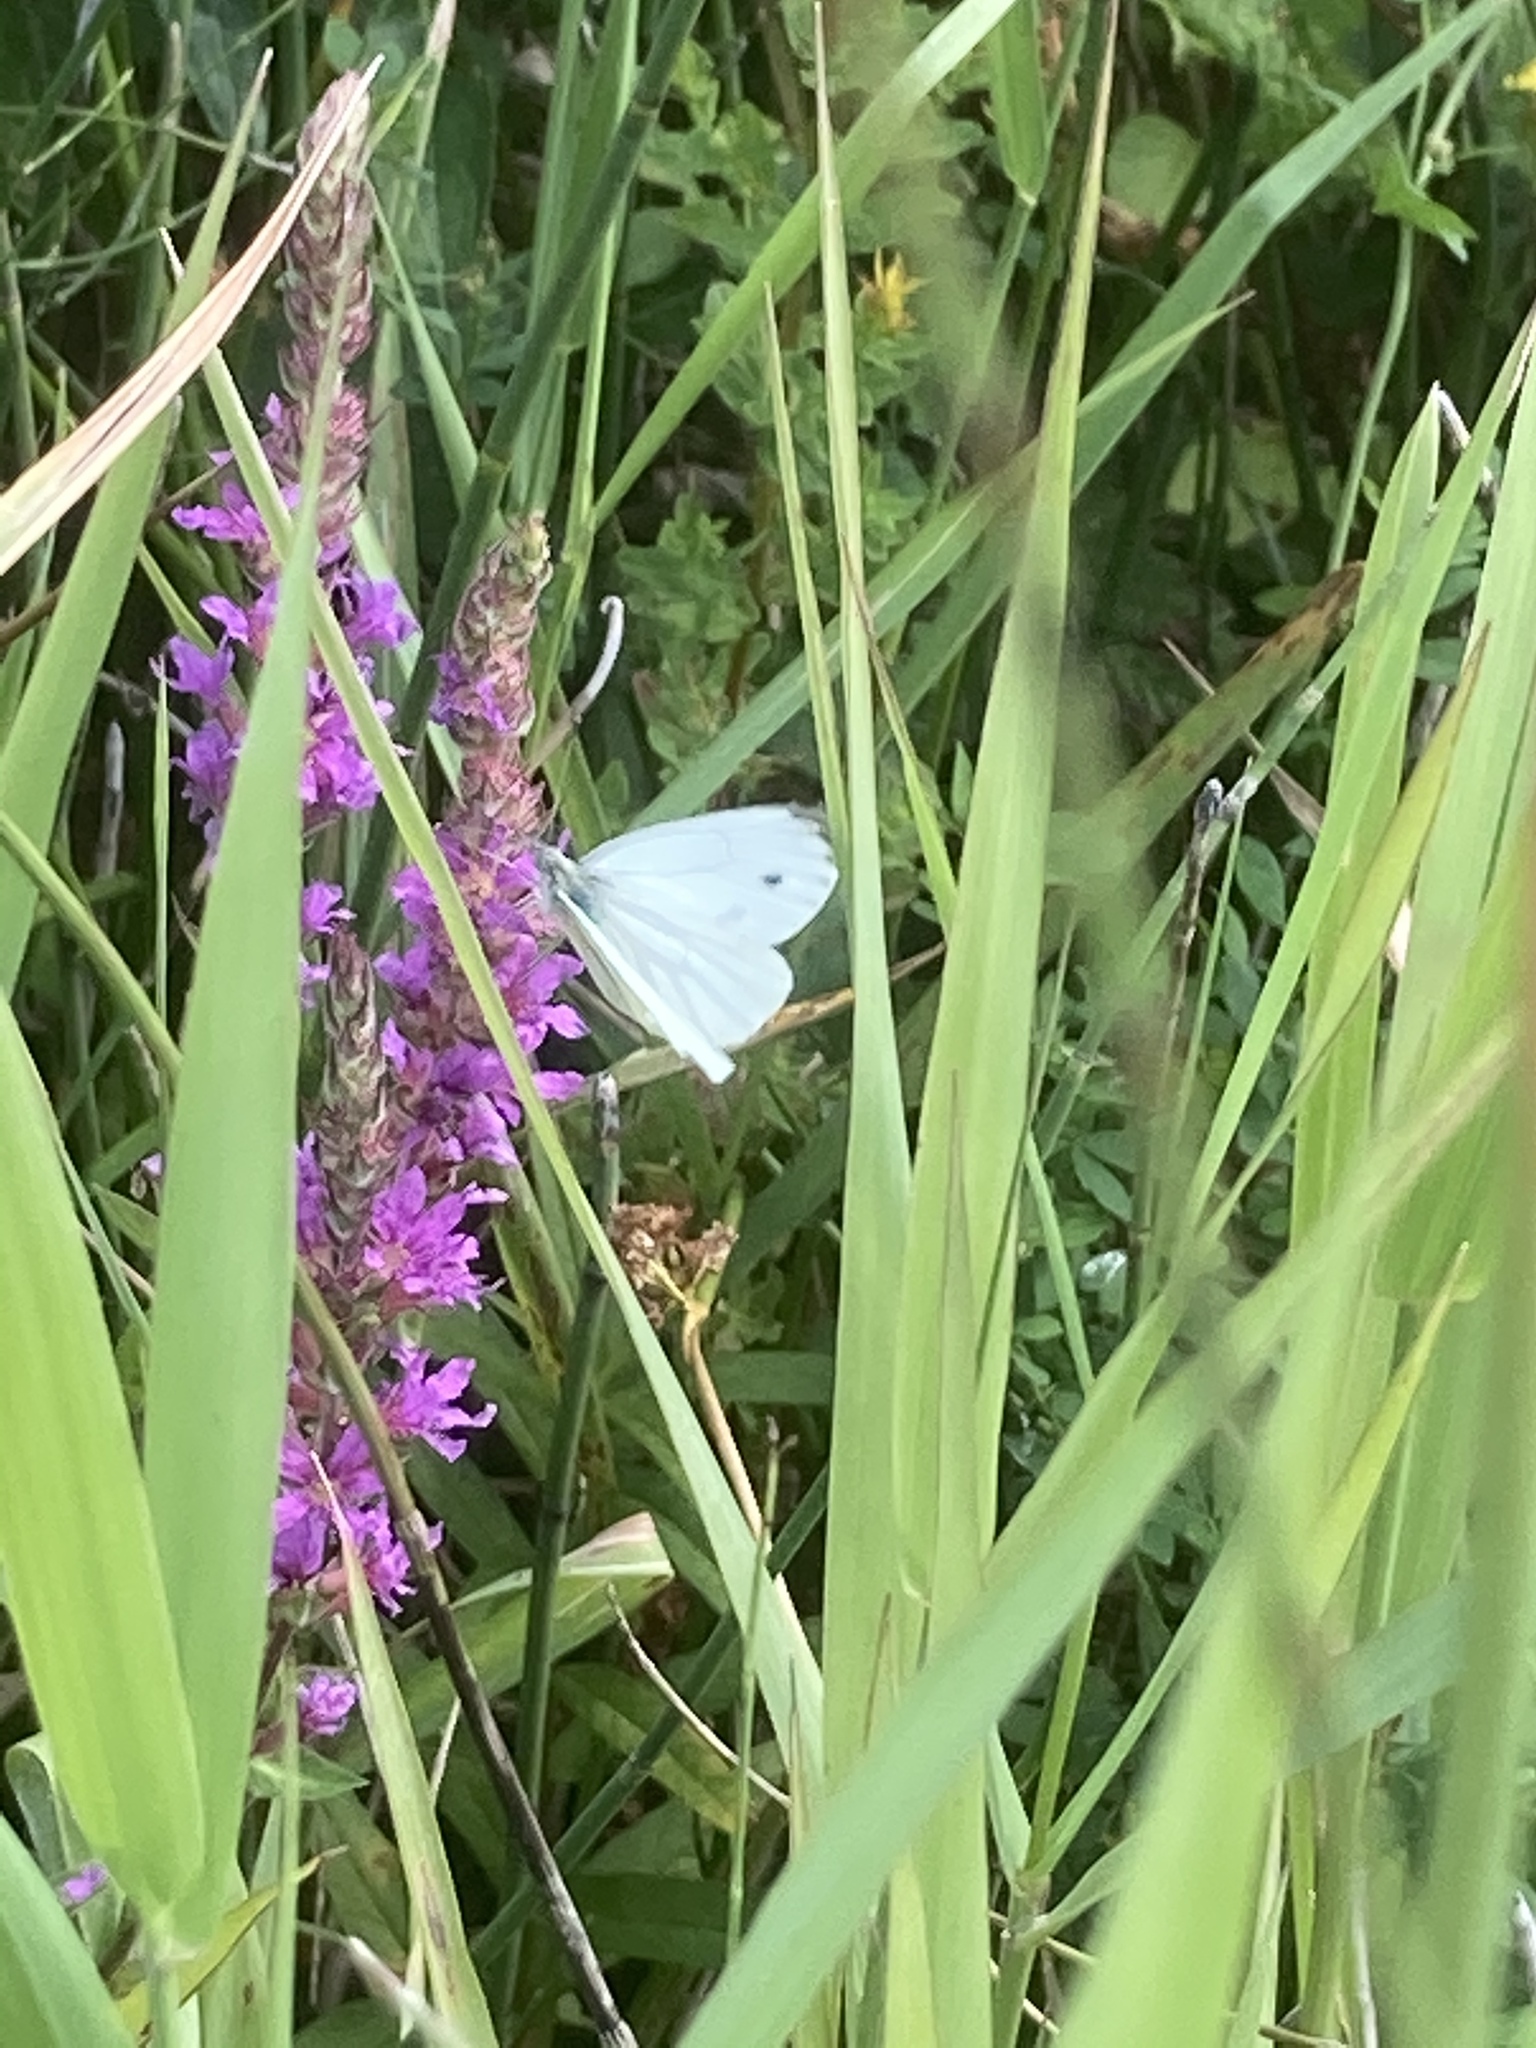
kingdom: Plantae
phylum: Tracheophyta
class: Magnoliopsida
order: Myrtales
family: Lythraceae
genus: Lythrum
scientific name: Lythrum salicaria
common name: Purple loosestrife
